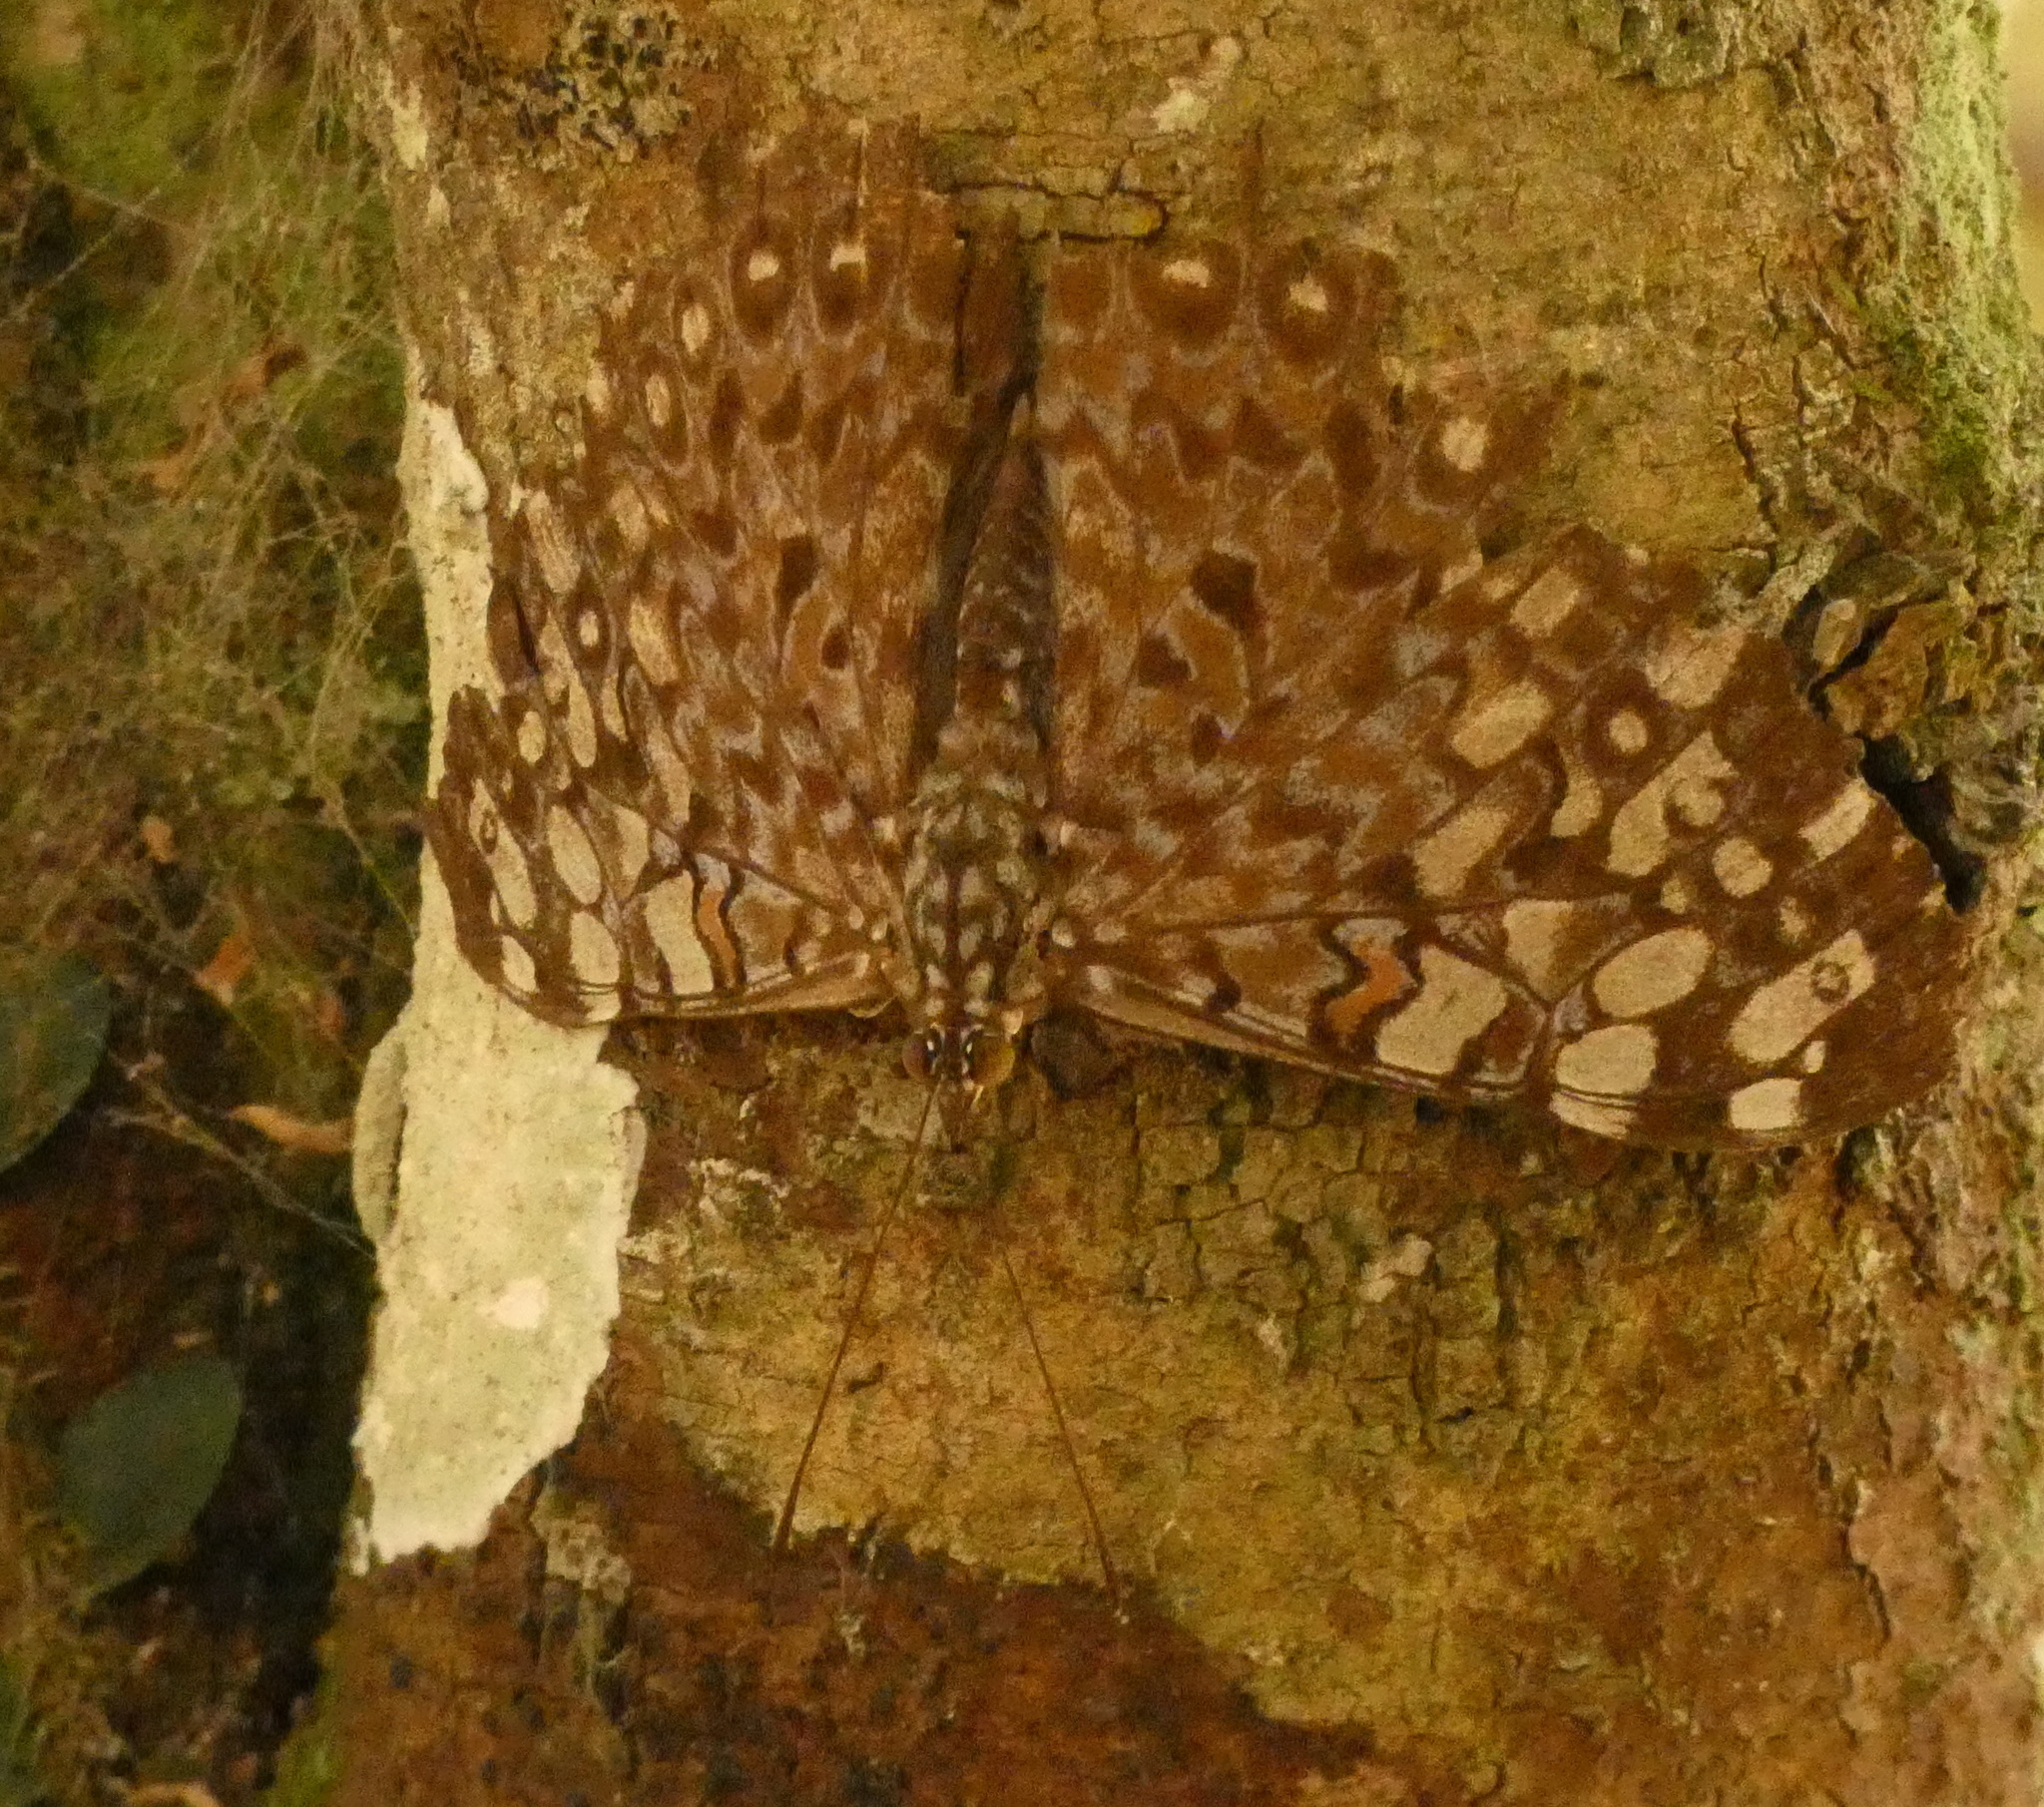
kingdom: Animalia
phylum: Arthropoda
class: Insecta
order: Lepidoptera
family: Nymphalidae
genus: Hamadryas
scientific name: Hamadryas feronia
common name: Variable cracker
